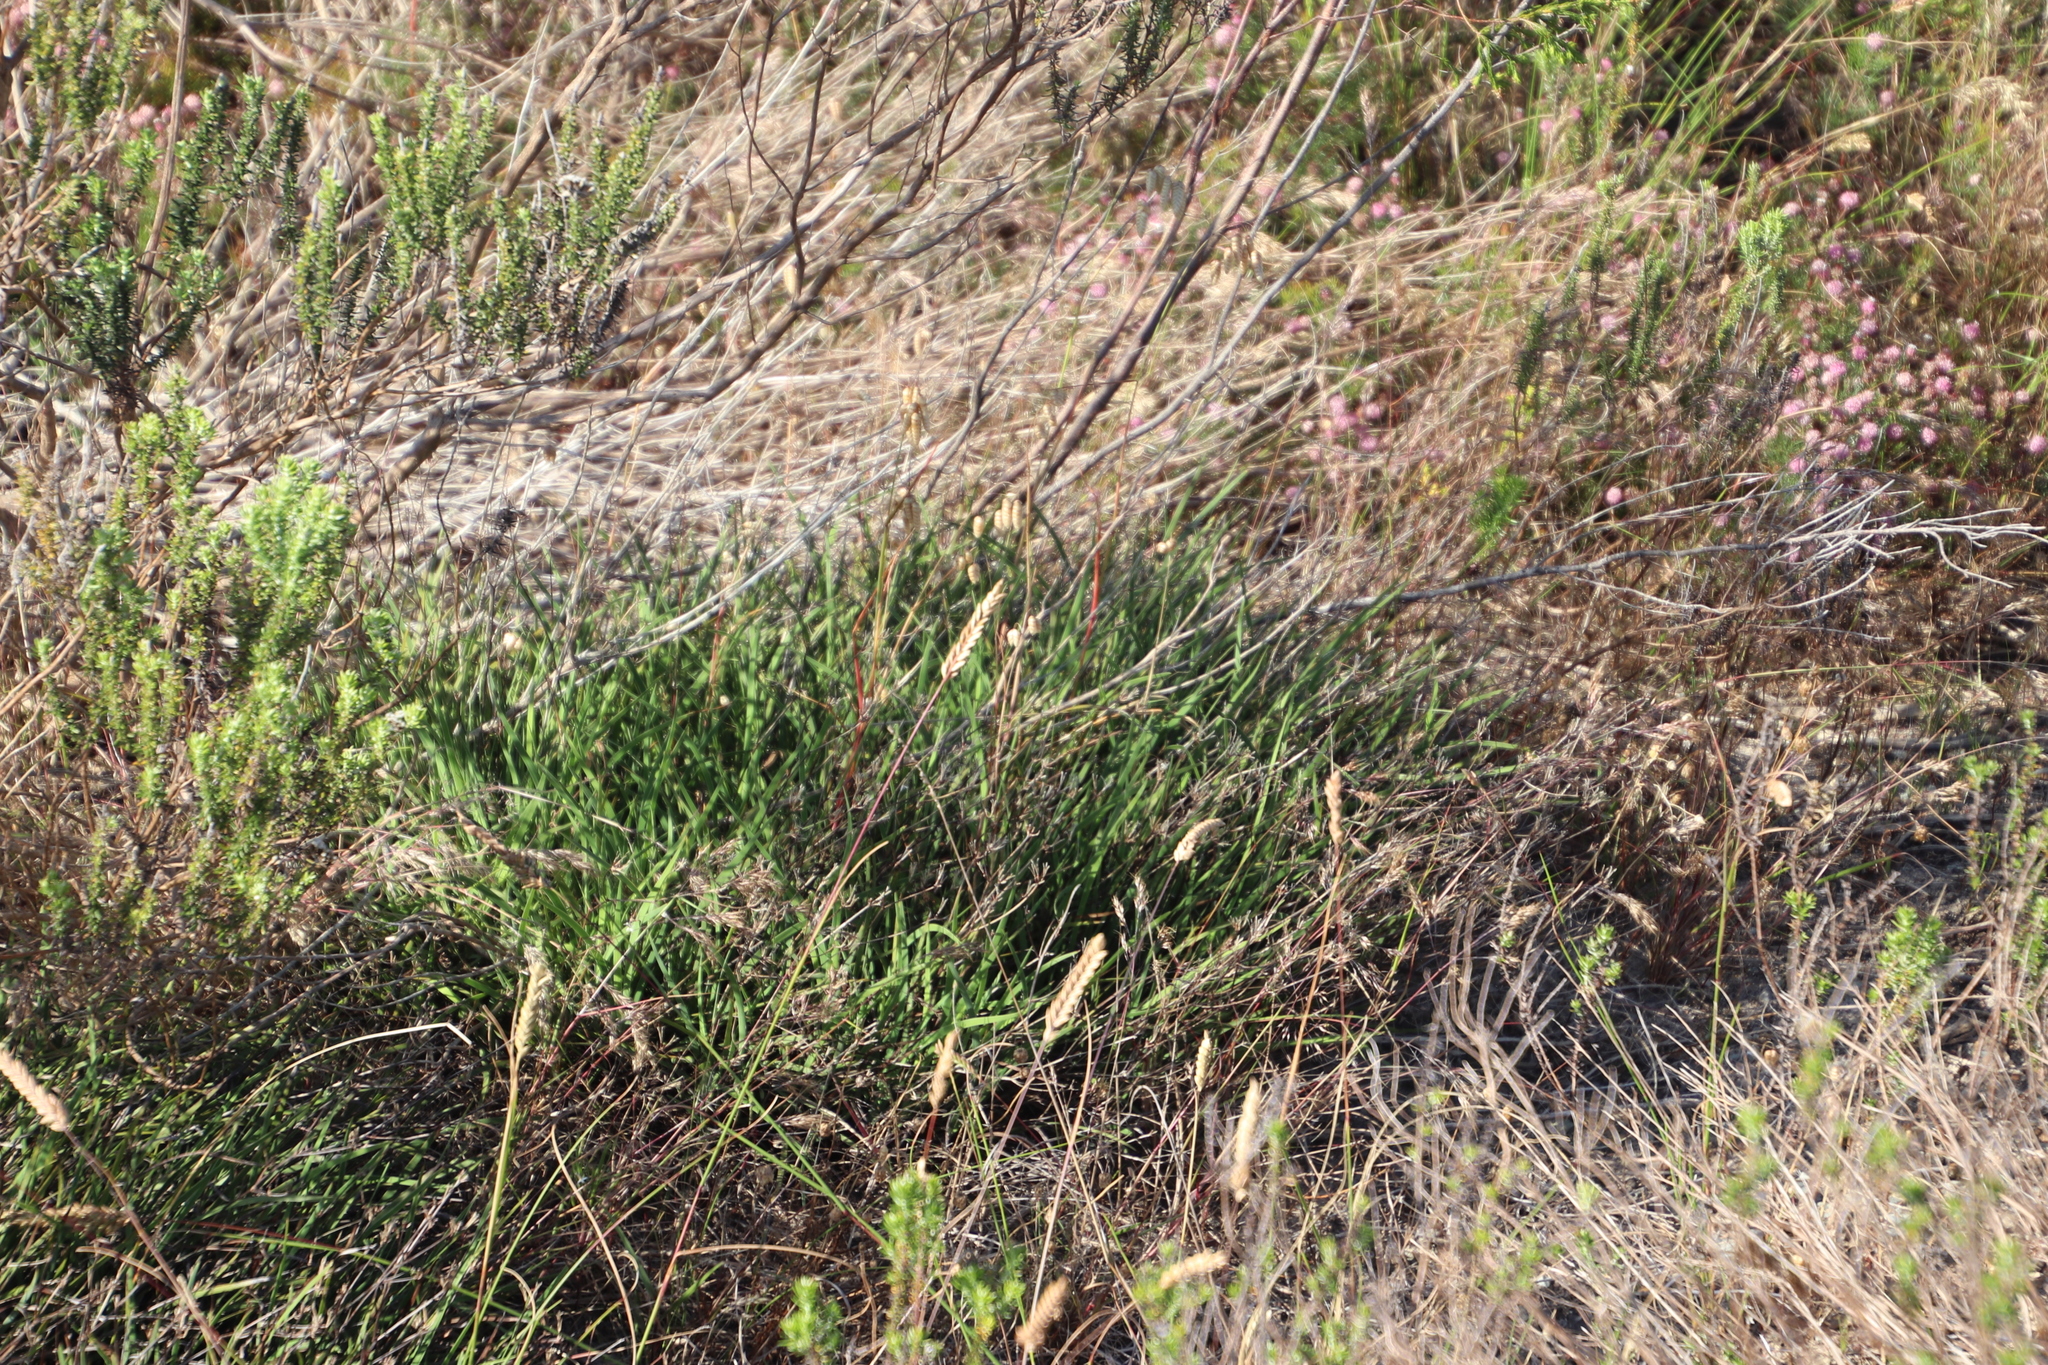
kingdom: Plantae
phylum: Tracheophyta
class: Liliopsida
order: Asparagales
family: Iridaceae
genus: Aristea
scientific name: Aristea africana
